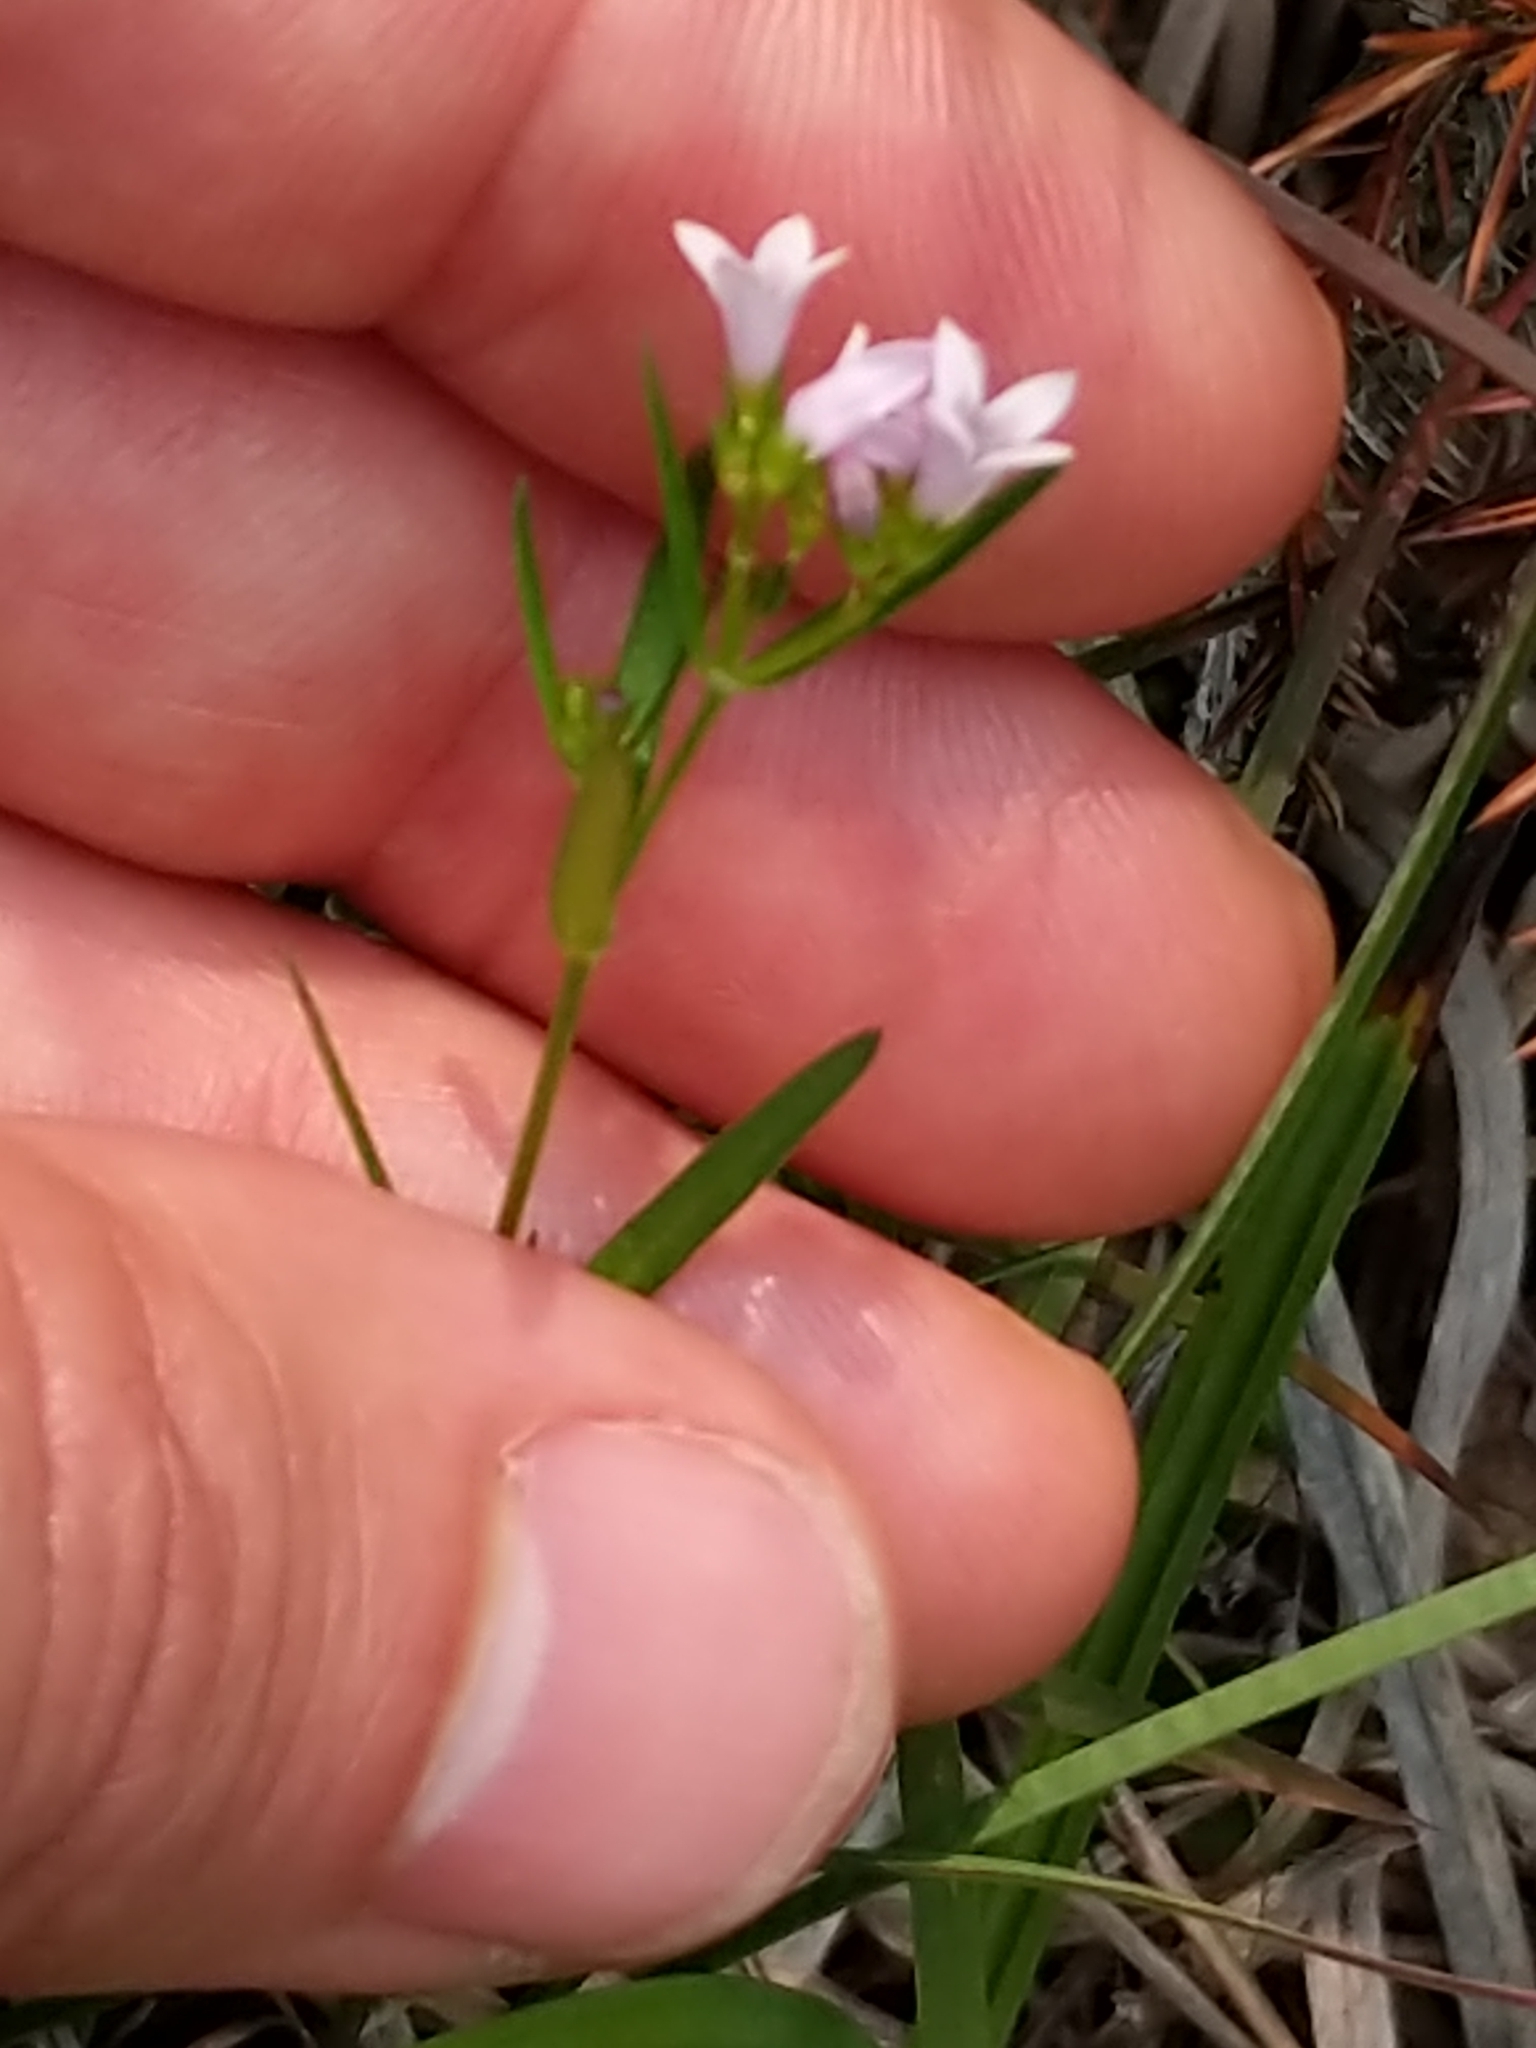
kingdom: Plantae
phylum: Tracheophyta
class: Magnoliopsida
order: Gentianales
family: Rubiaceae
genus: Houstonia
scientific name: Houstonia longifolia
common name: Long-leaved bluets
